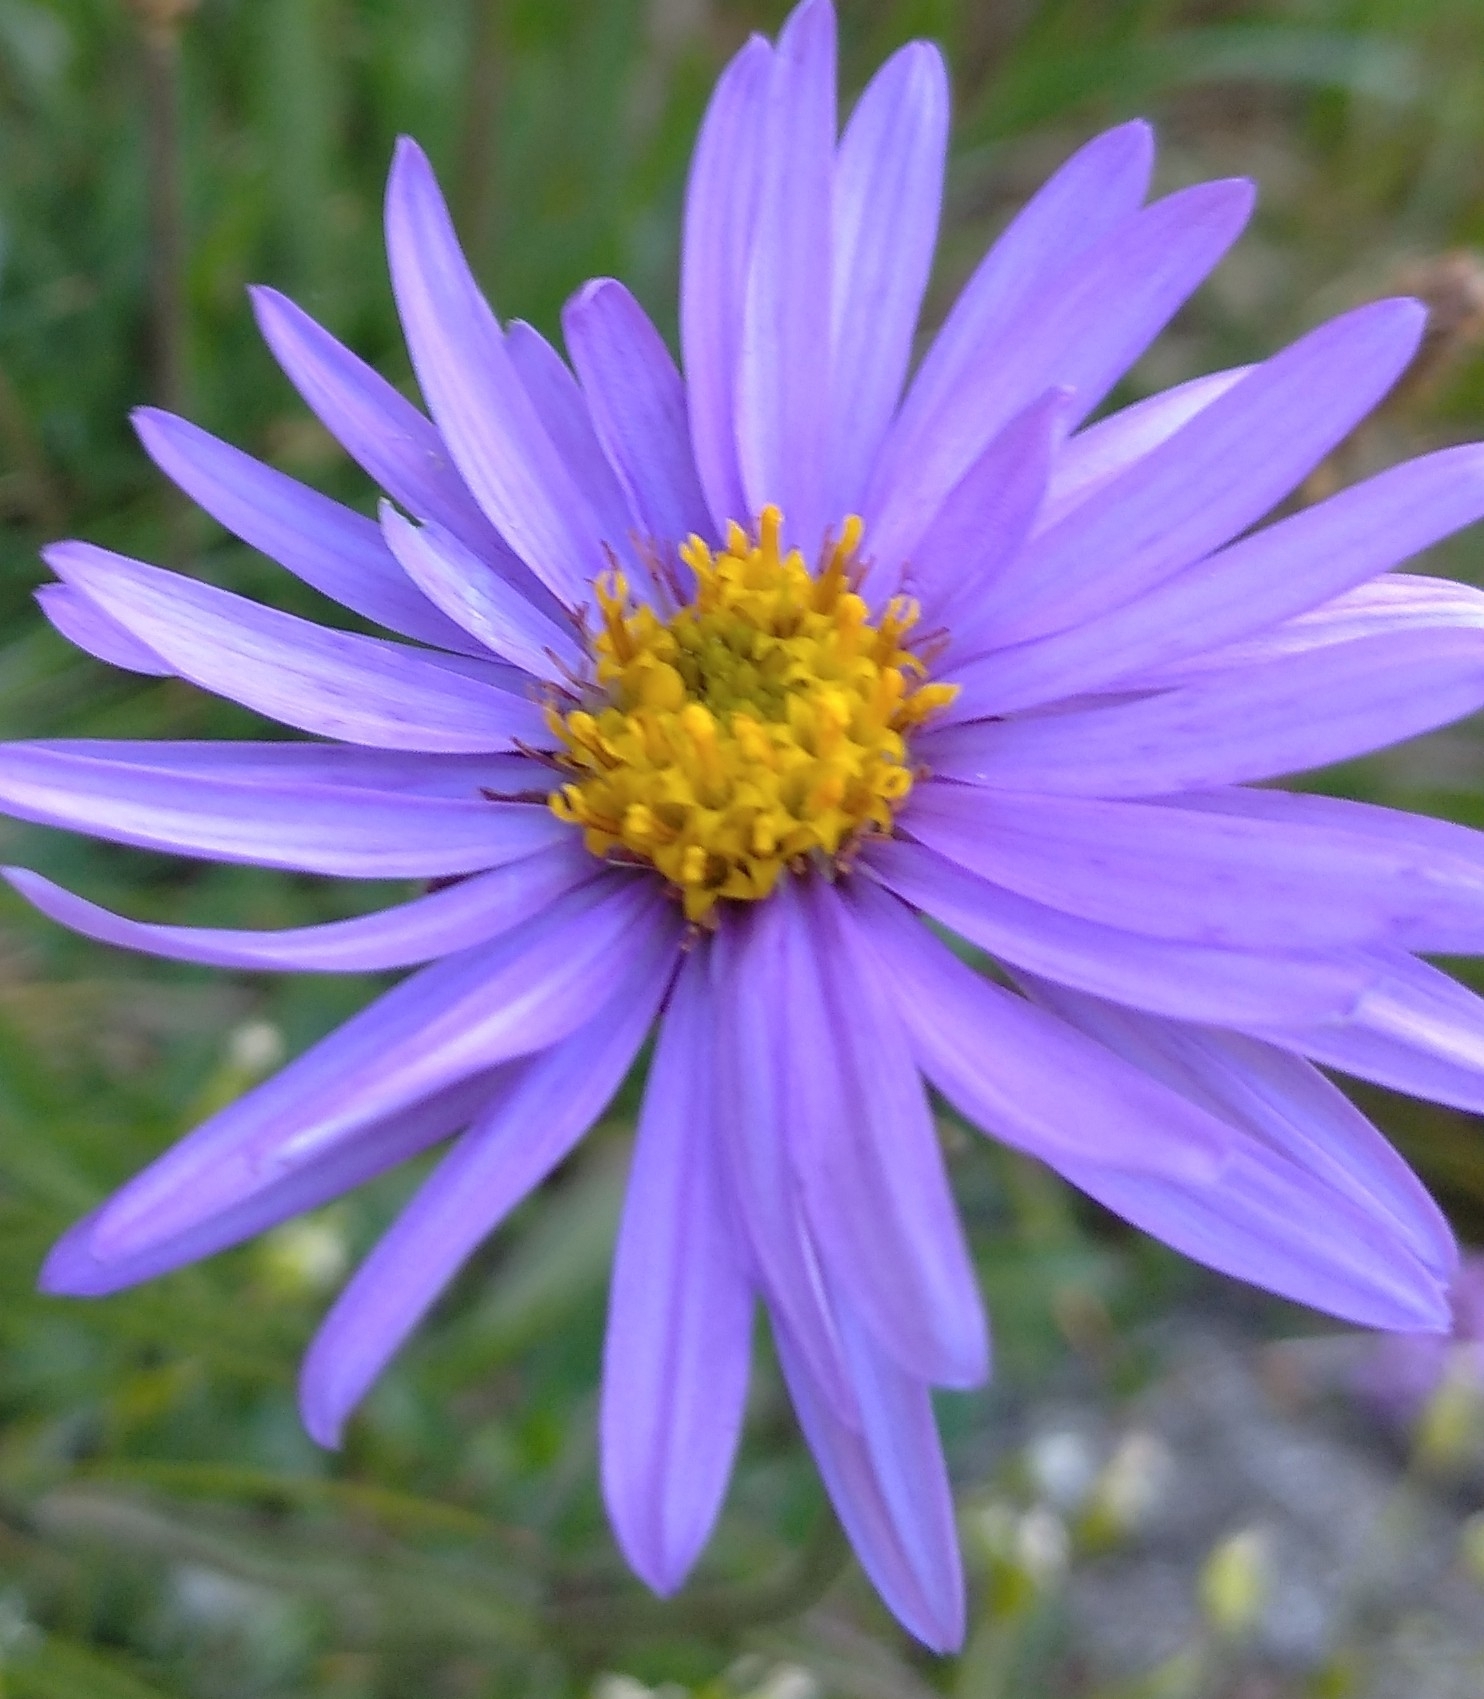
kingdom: Plantae
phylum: Tracheophyta
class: Magnoliopsida
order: Asterales
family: Asteraceae
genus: Aster
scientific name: Aster alpinus
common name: Alpine aster
